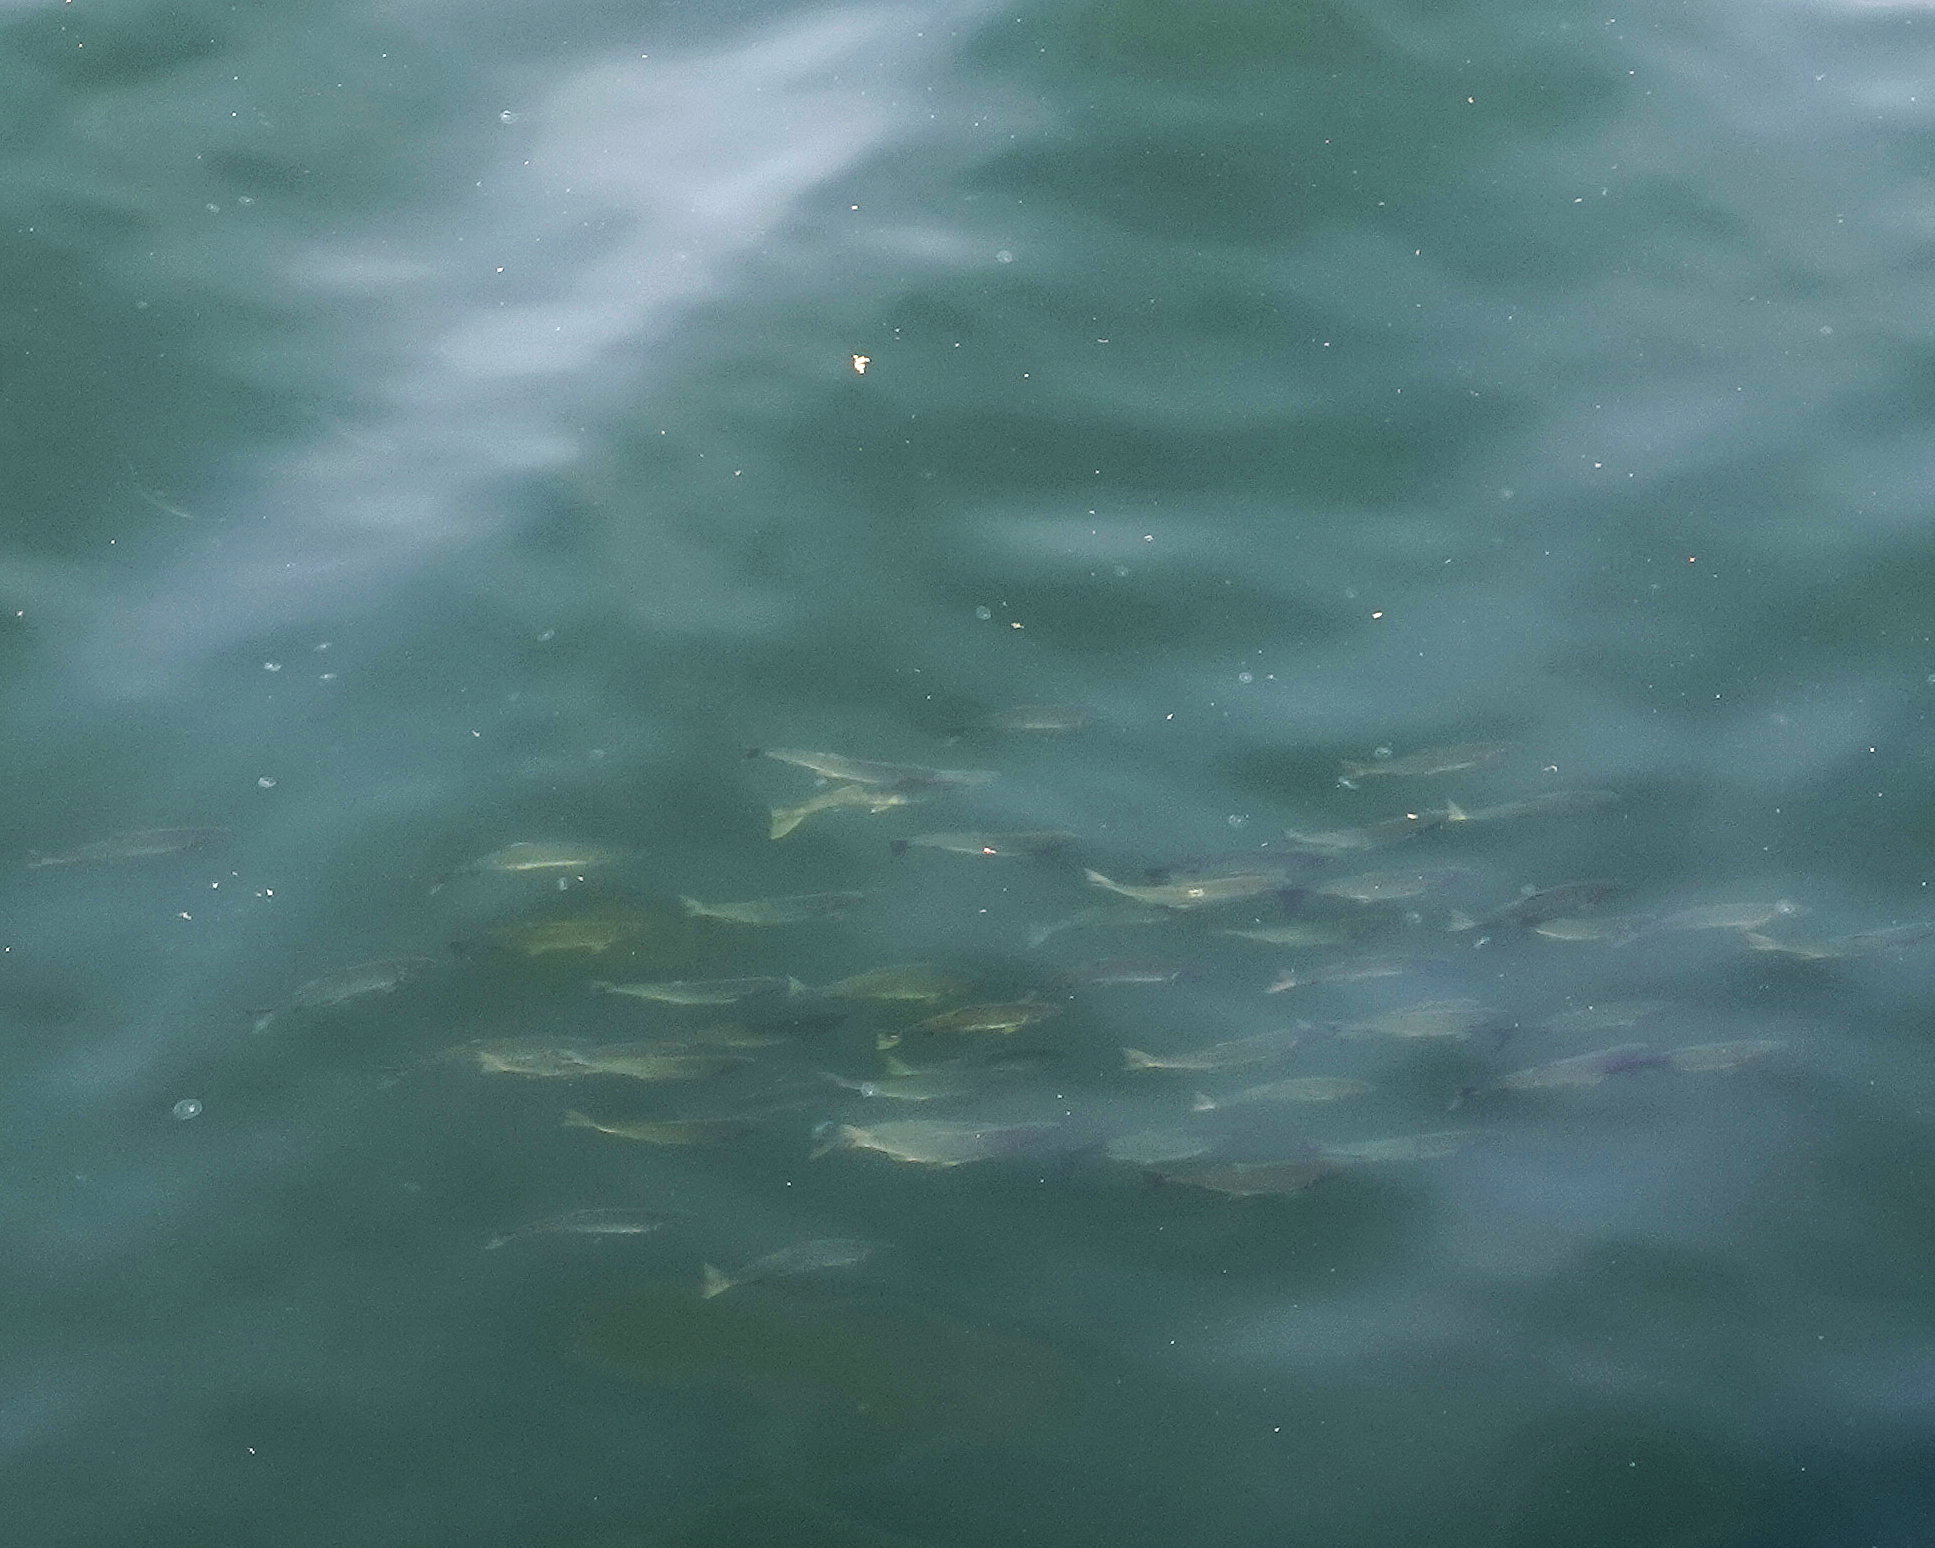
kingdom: Animalia
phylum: Chordata
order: Salmoniformes
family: Salmonidae
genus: Oncorhynchus
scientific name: Oncorhynchus gorbuscha
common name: Humpback salmon
